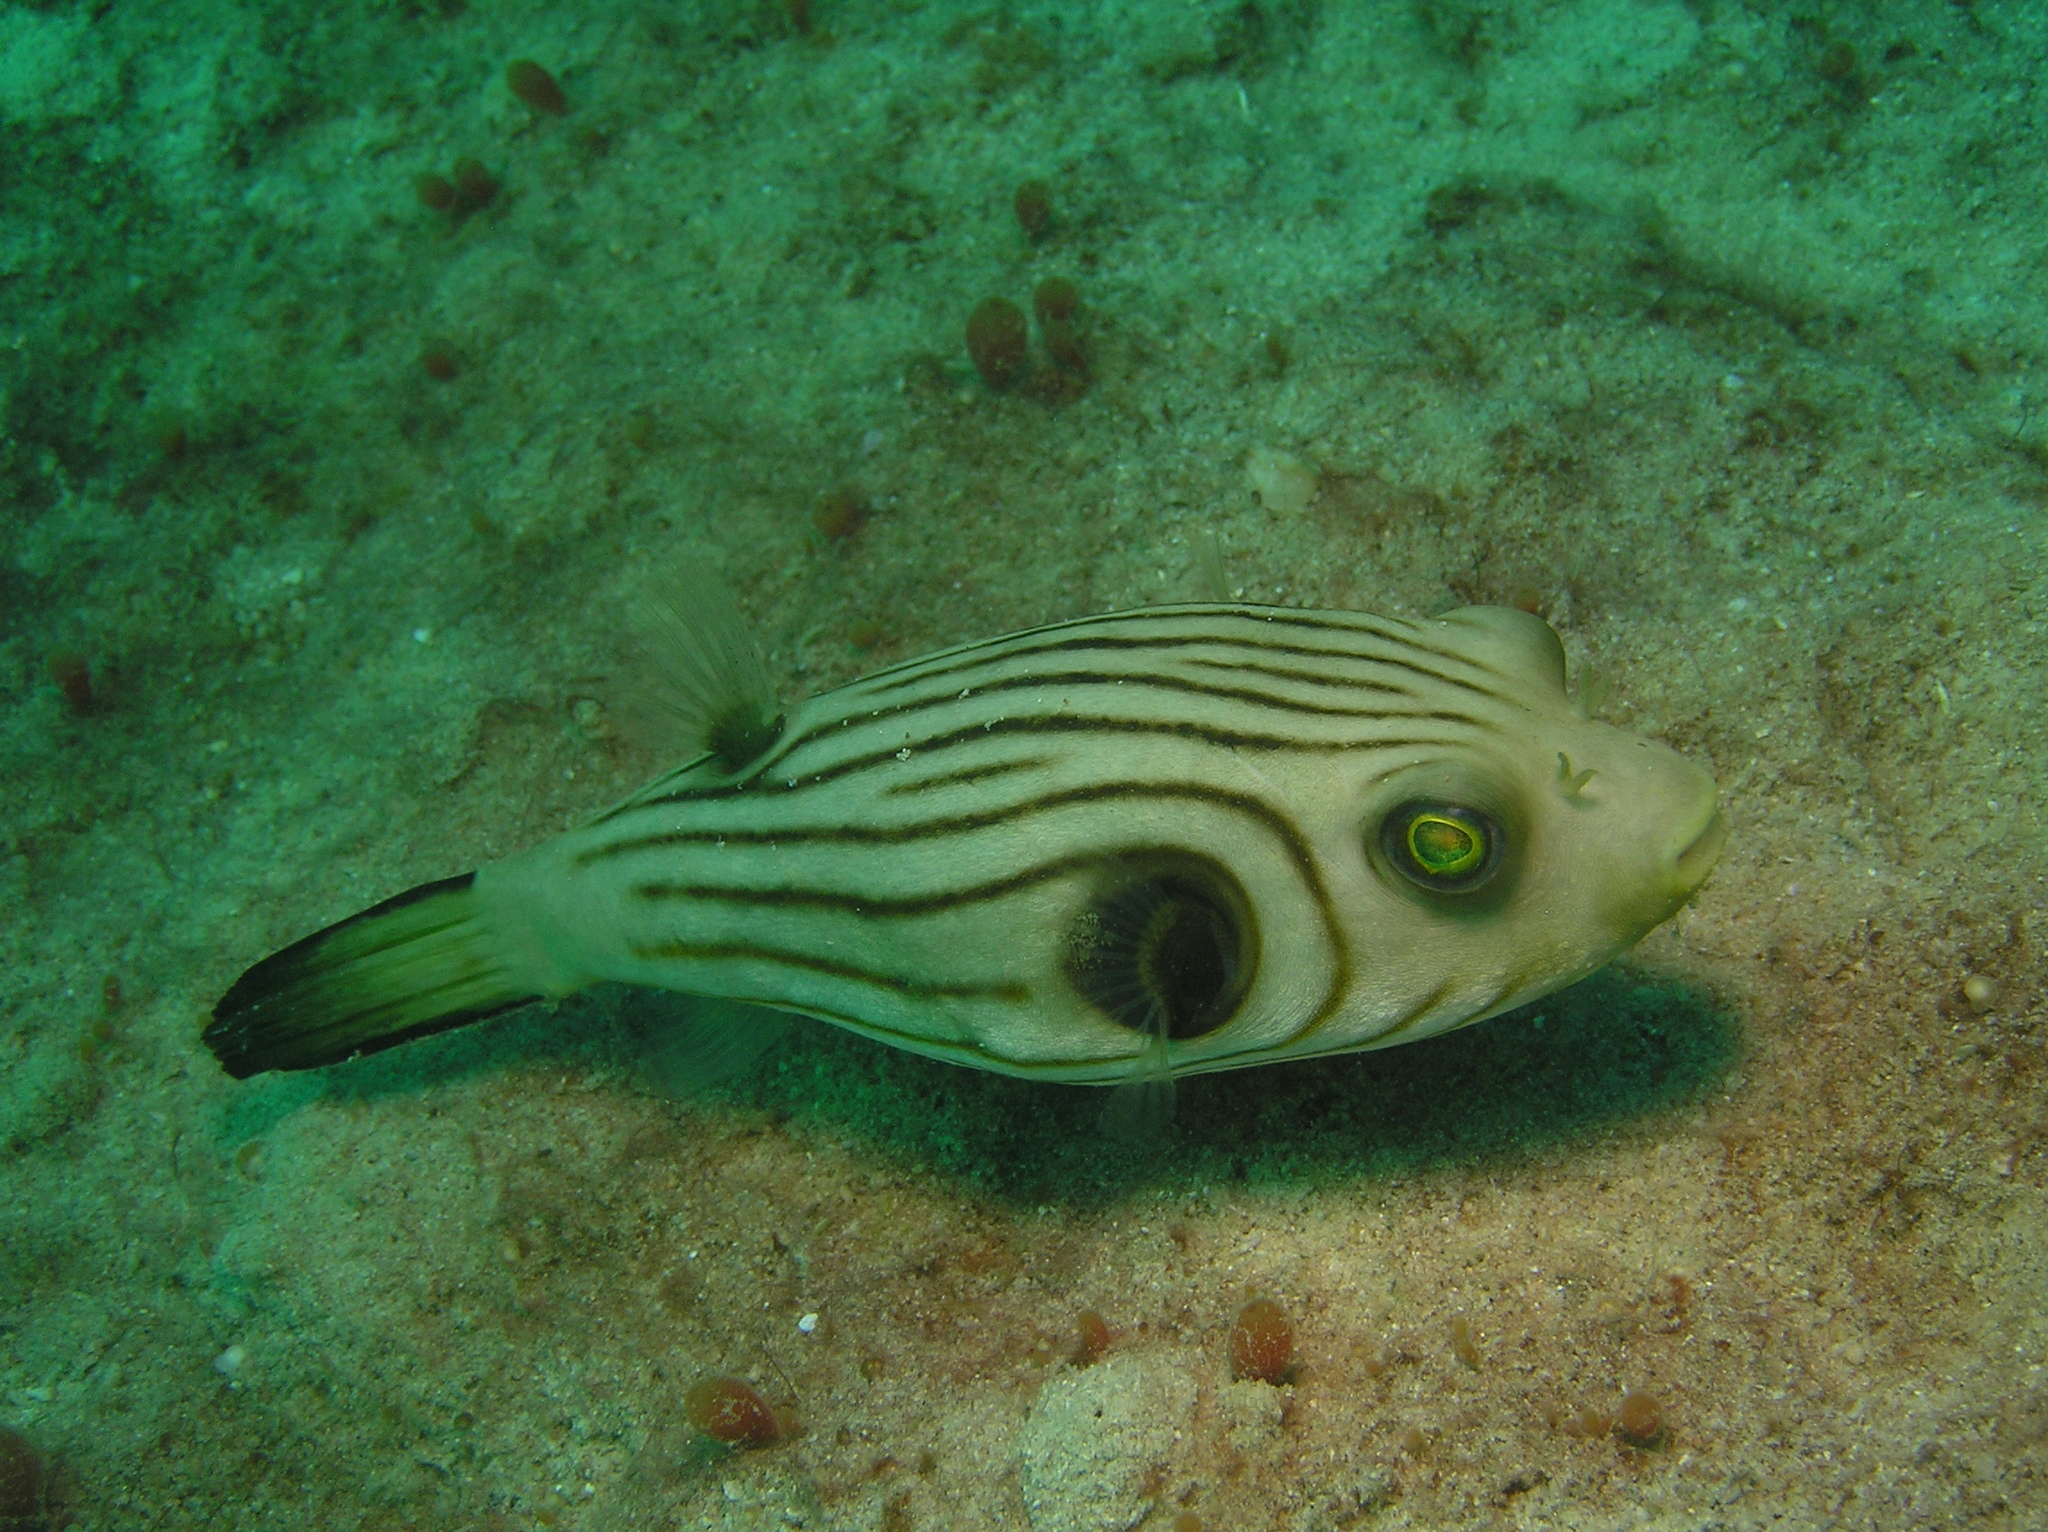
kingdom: Animalia
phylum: Chordata
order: Tetraodontiformes
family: Tetraodontidae
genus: Arothron
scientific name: Arothron manilensis
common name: Narrow-lined puffer
